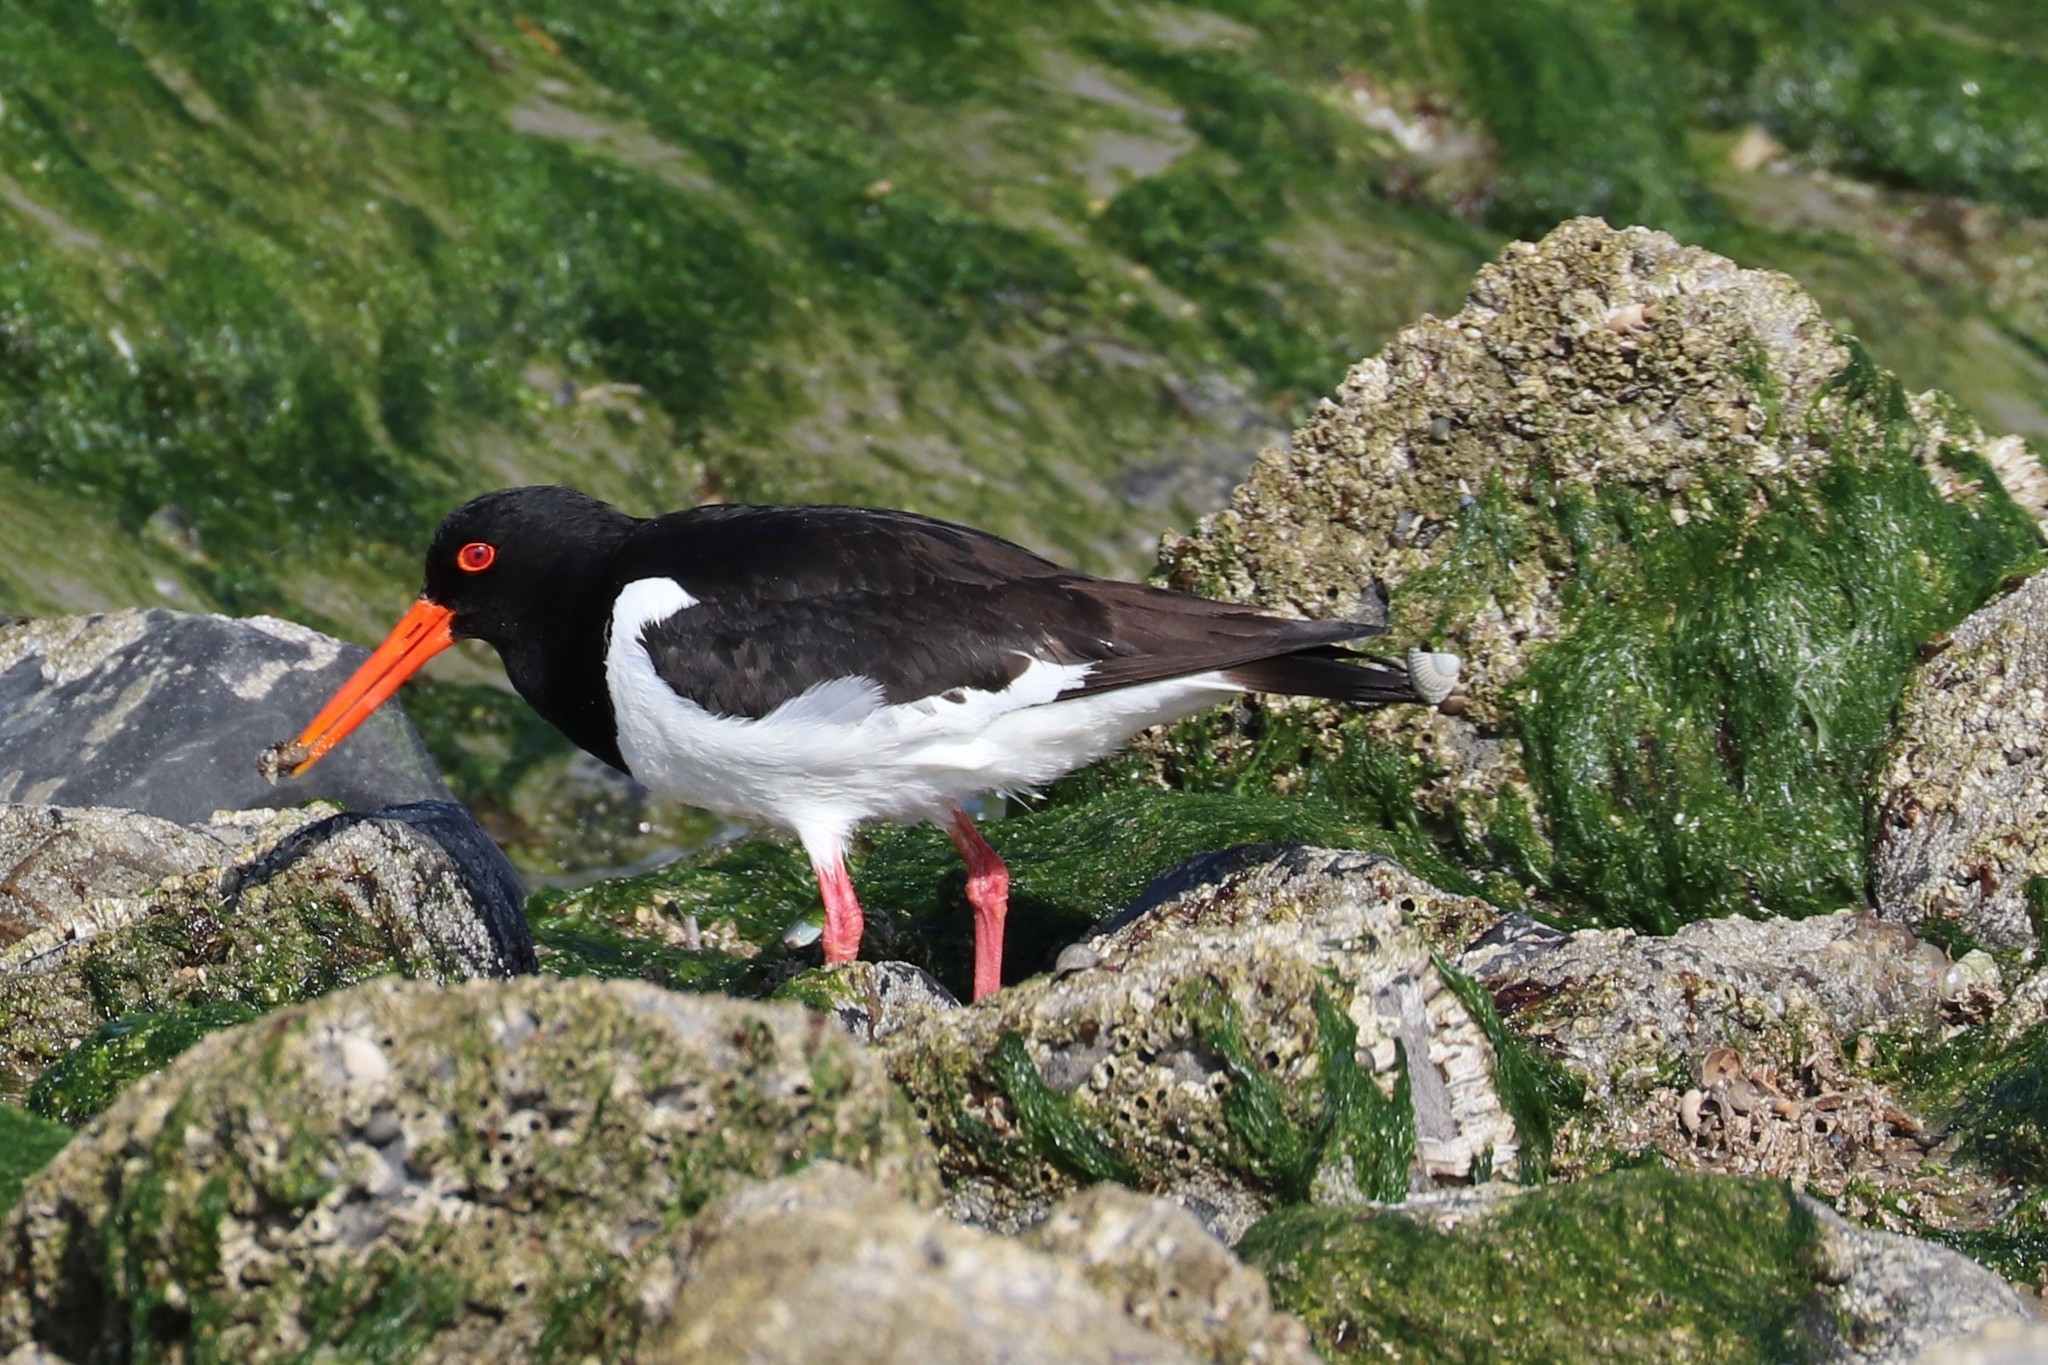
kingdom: Animalia
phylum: Chordata
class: Aves
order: Charadriiformes
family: Haematopodidae
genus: Haematopus
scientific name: Haematopus ostralegus
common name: Eurasian oystercatcher
